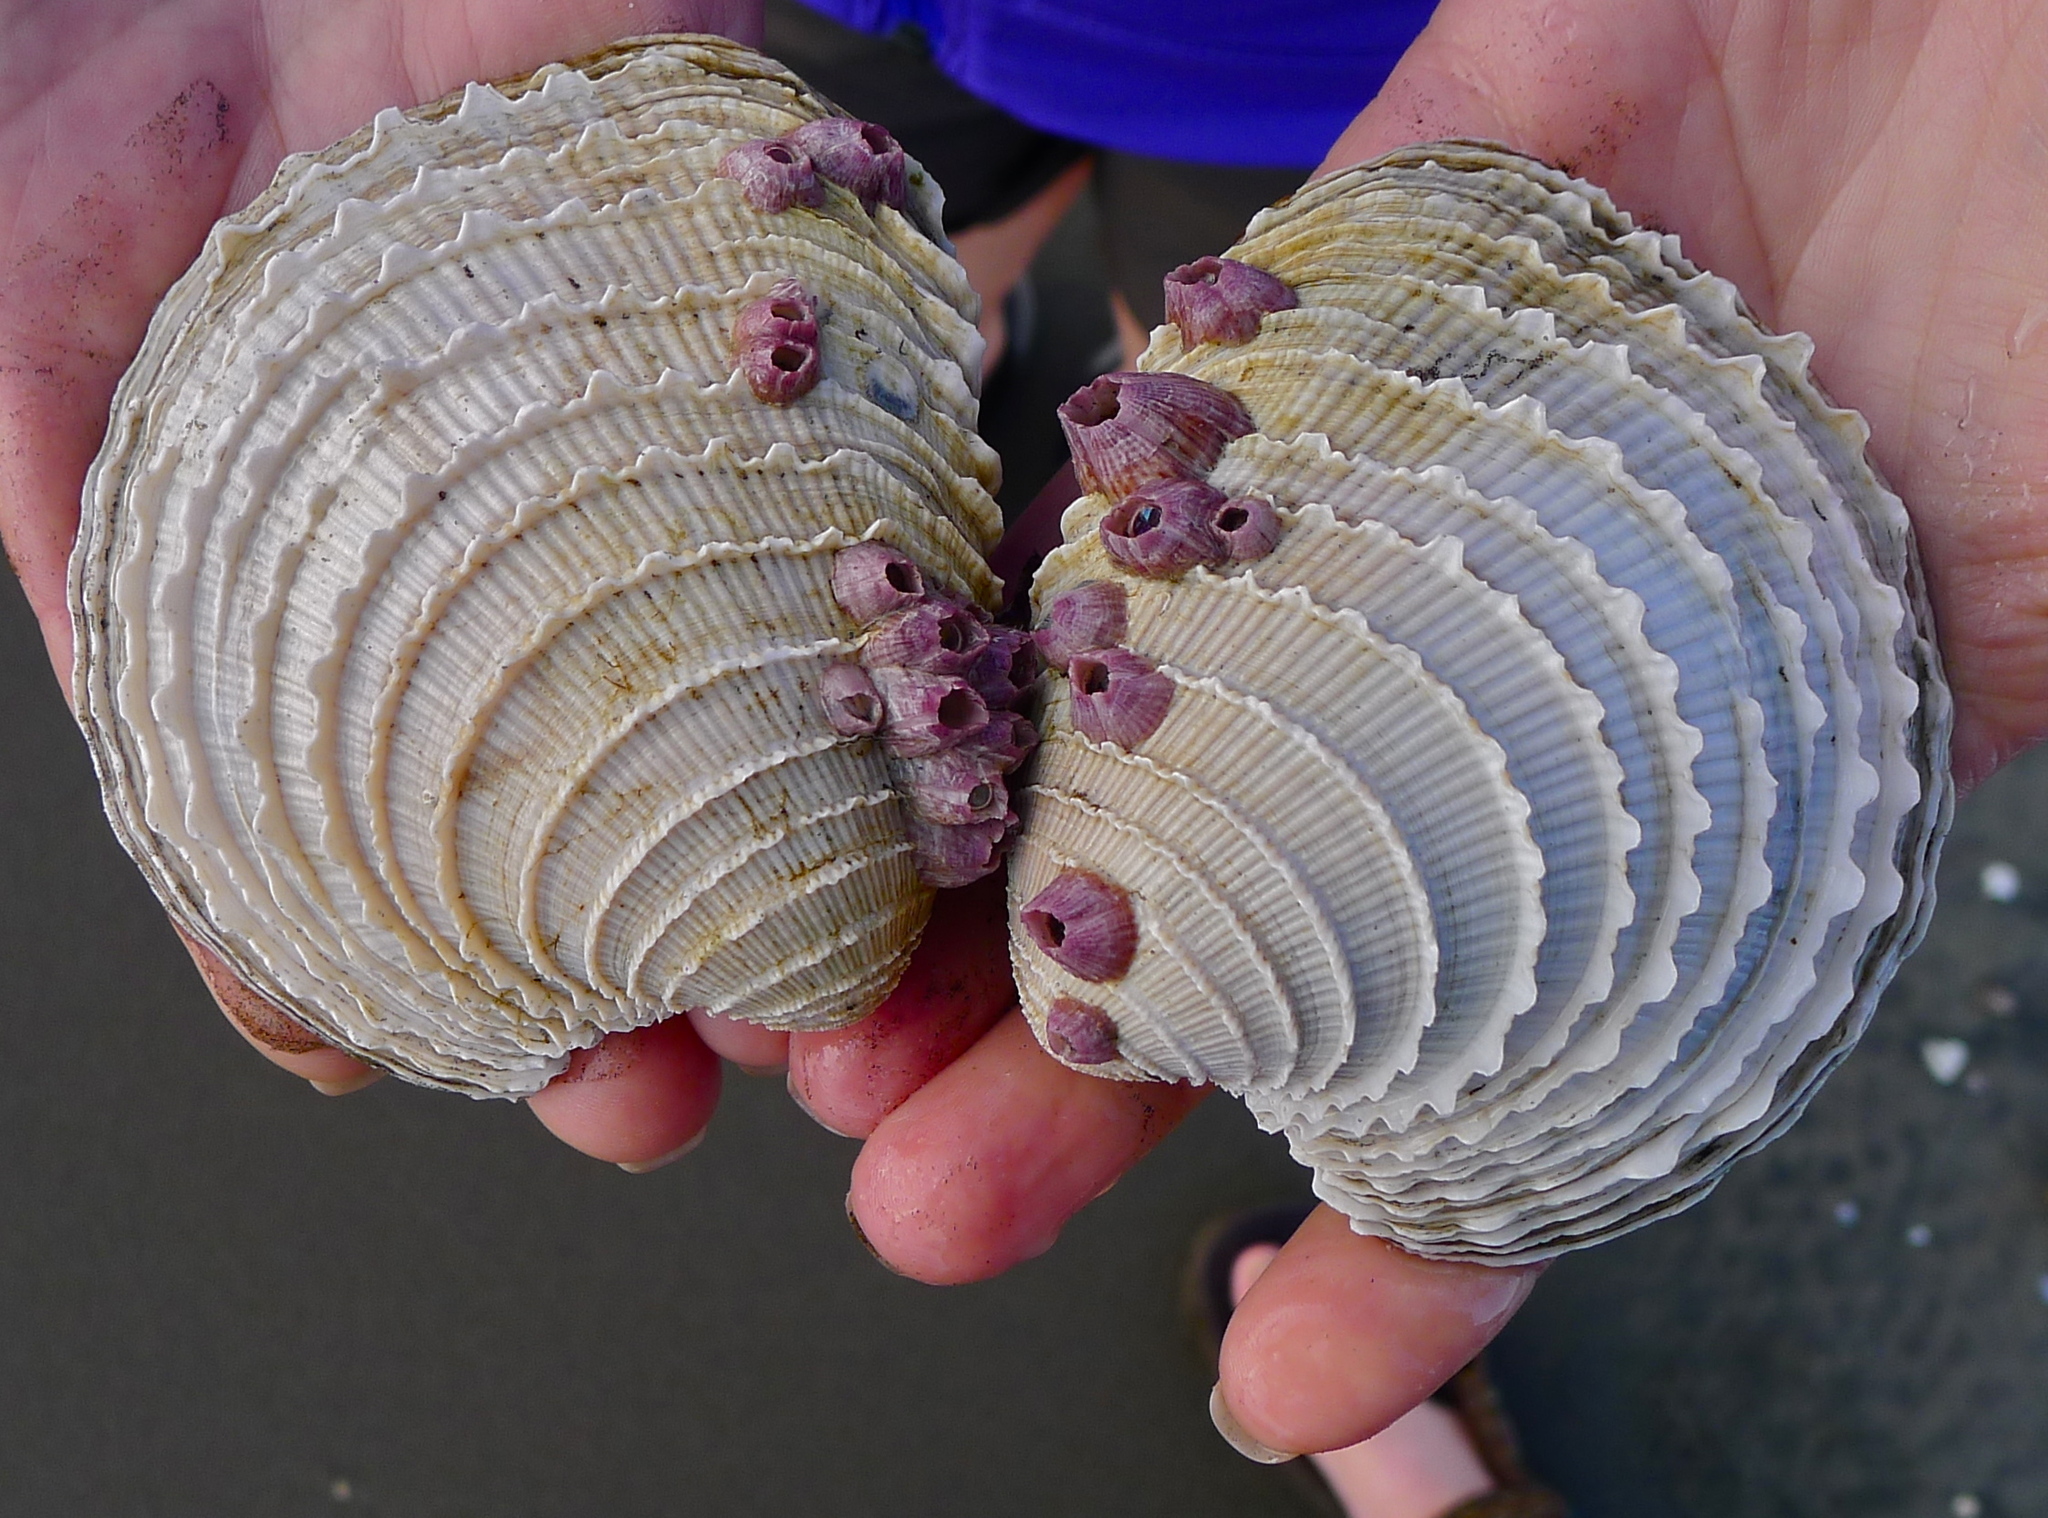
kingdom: Animalia
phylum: Mollusca
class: Bivalvia
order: Venerida
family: Veneridae
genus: Chionopsis
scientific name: Chionopsis gnidia
